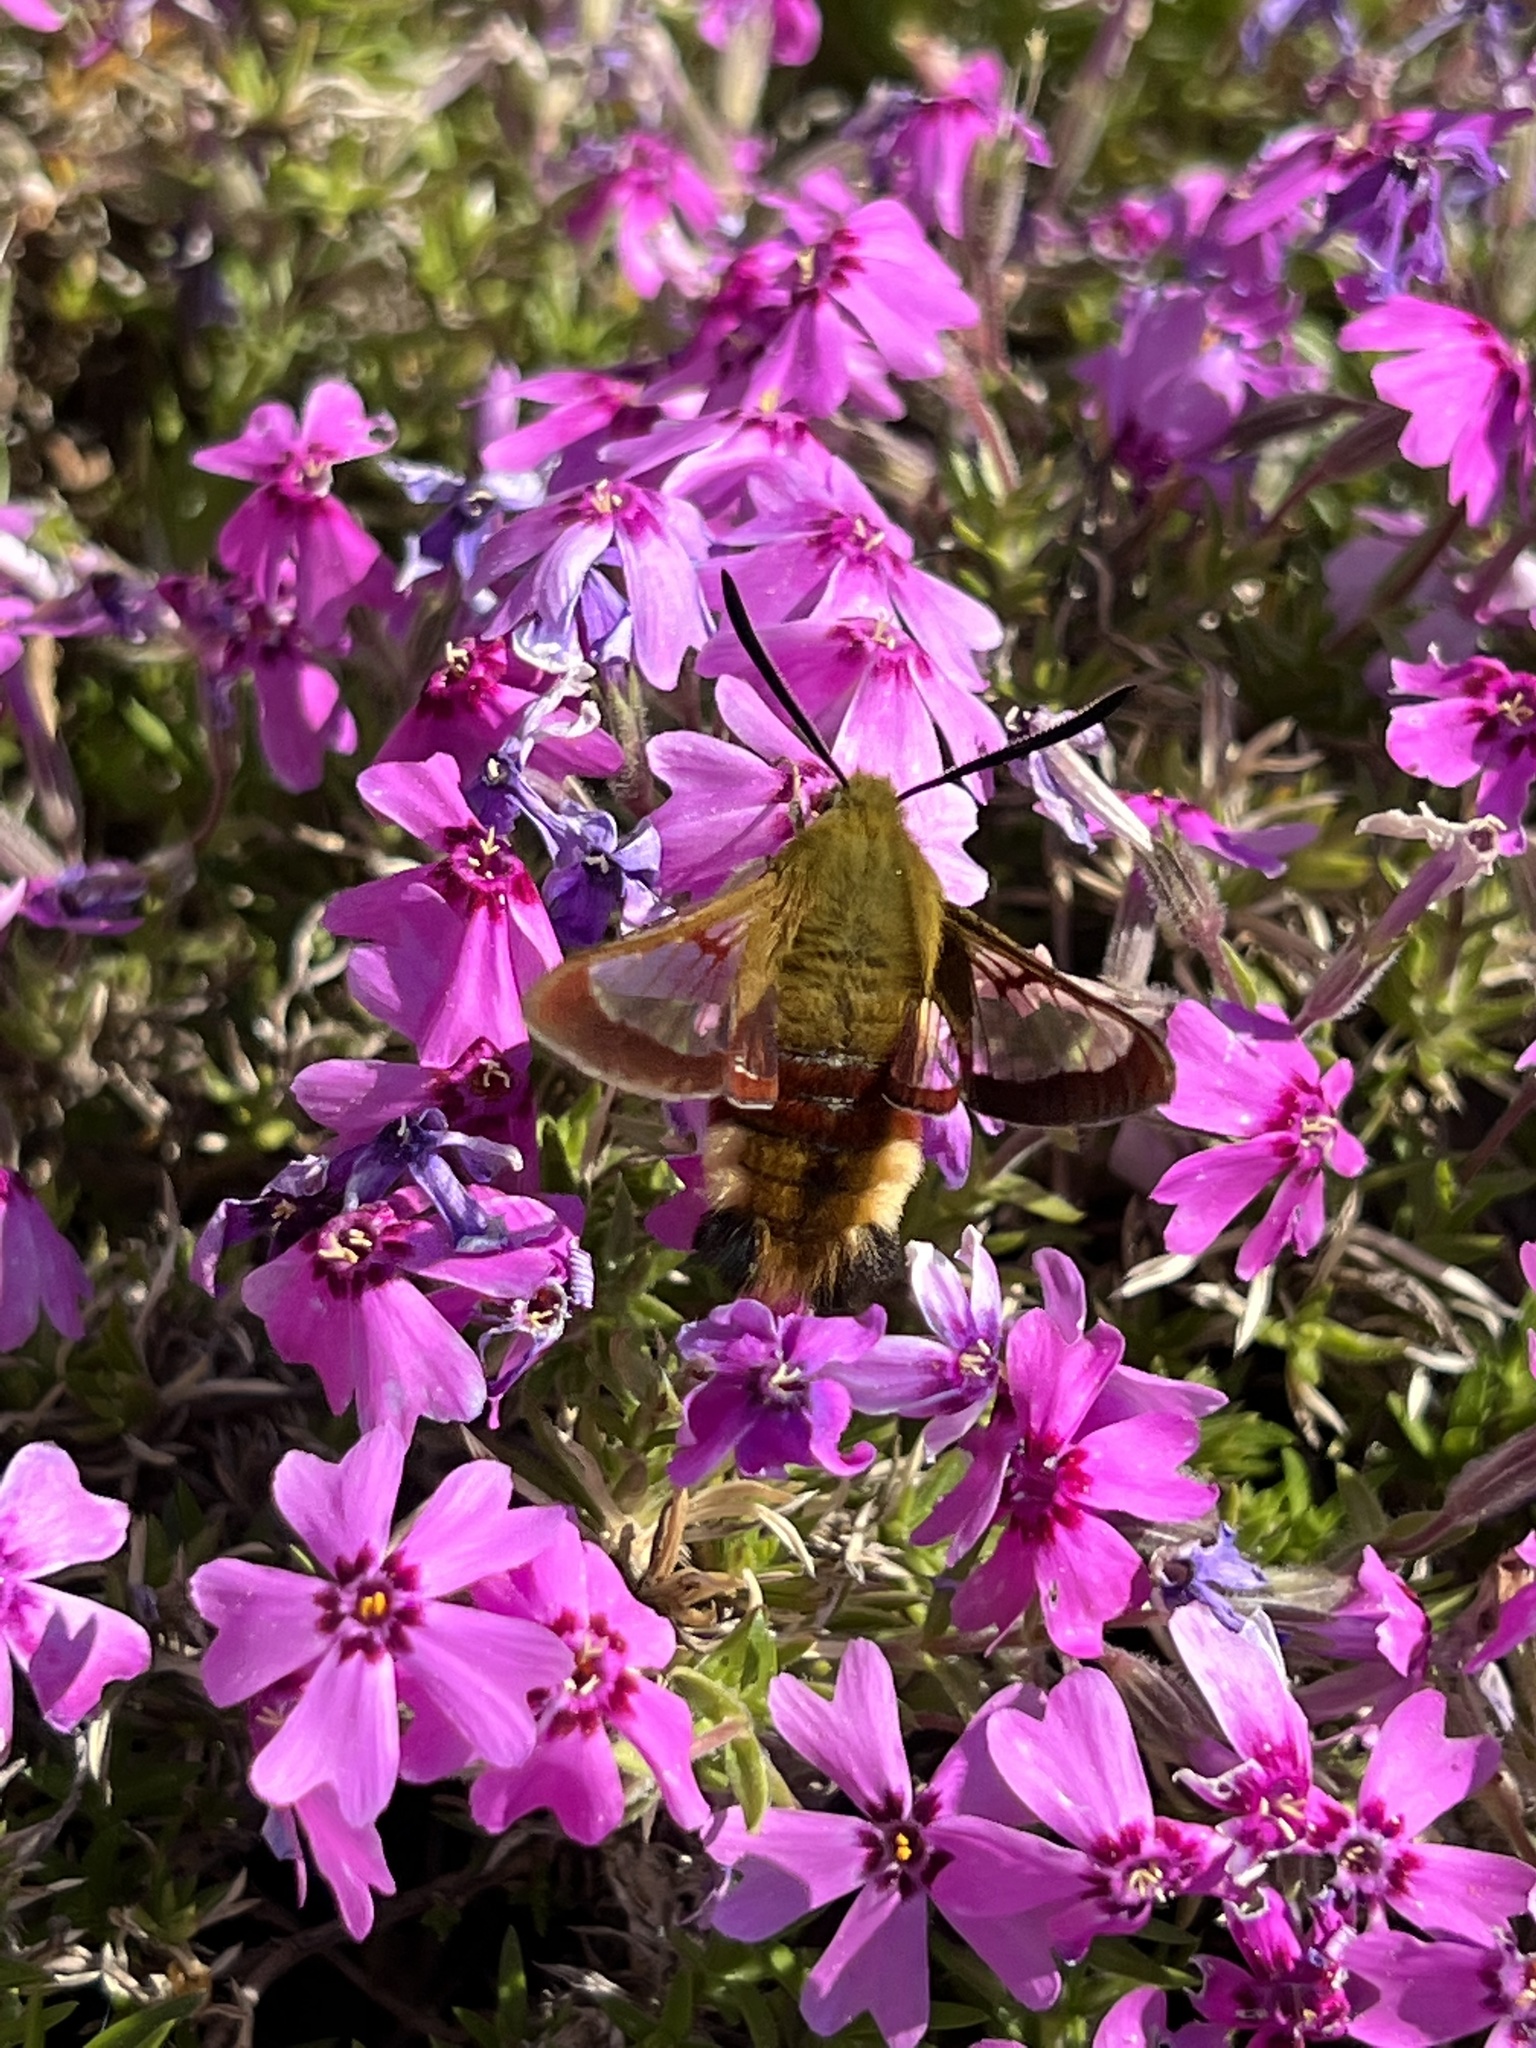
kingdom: Animalia
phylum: Arthropoda
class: Insecta
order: Lepidoptera
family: Sphingidae
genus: Hemaris
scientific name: Hemaris fuciformis
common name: Broad-bordered bee hawk-moth
